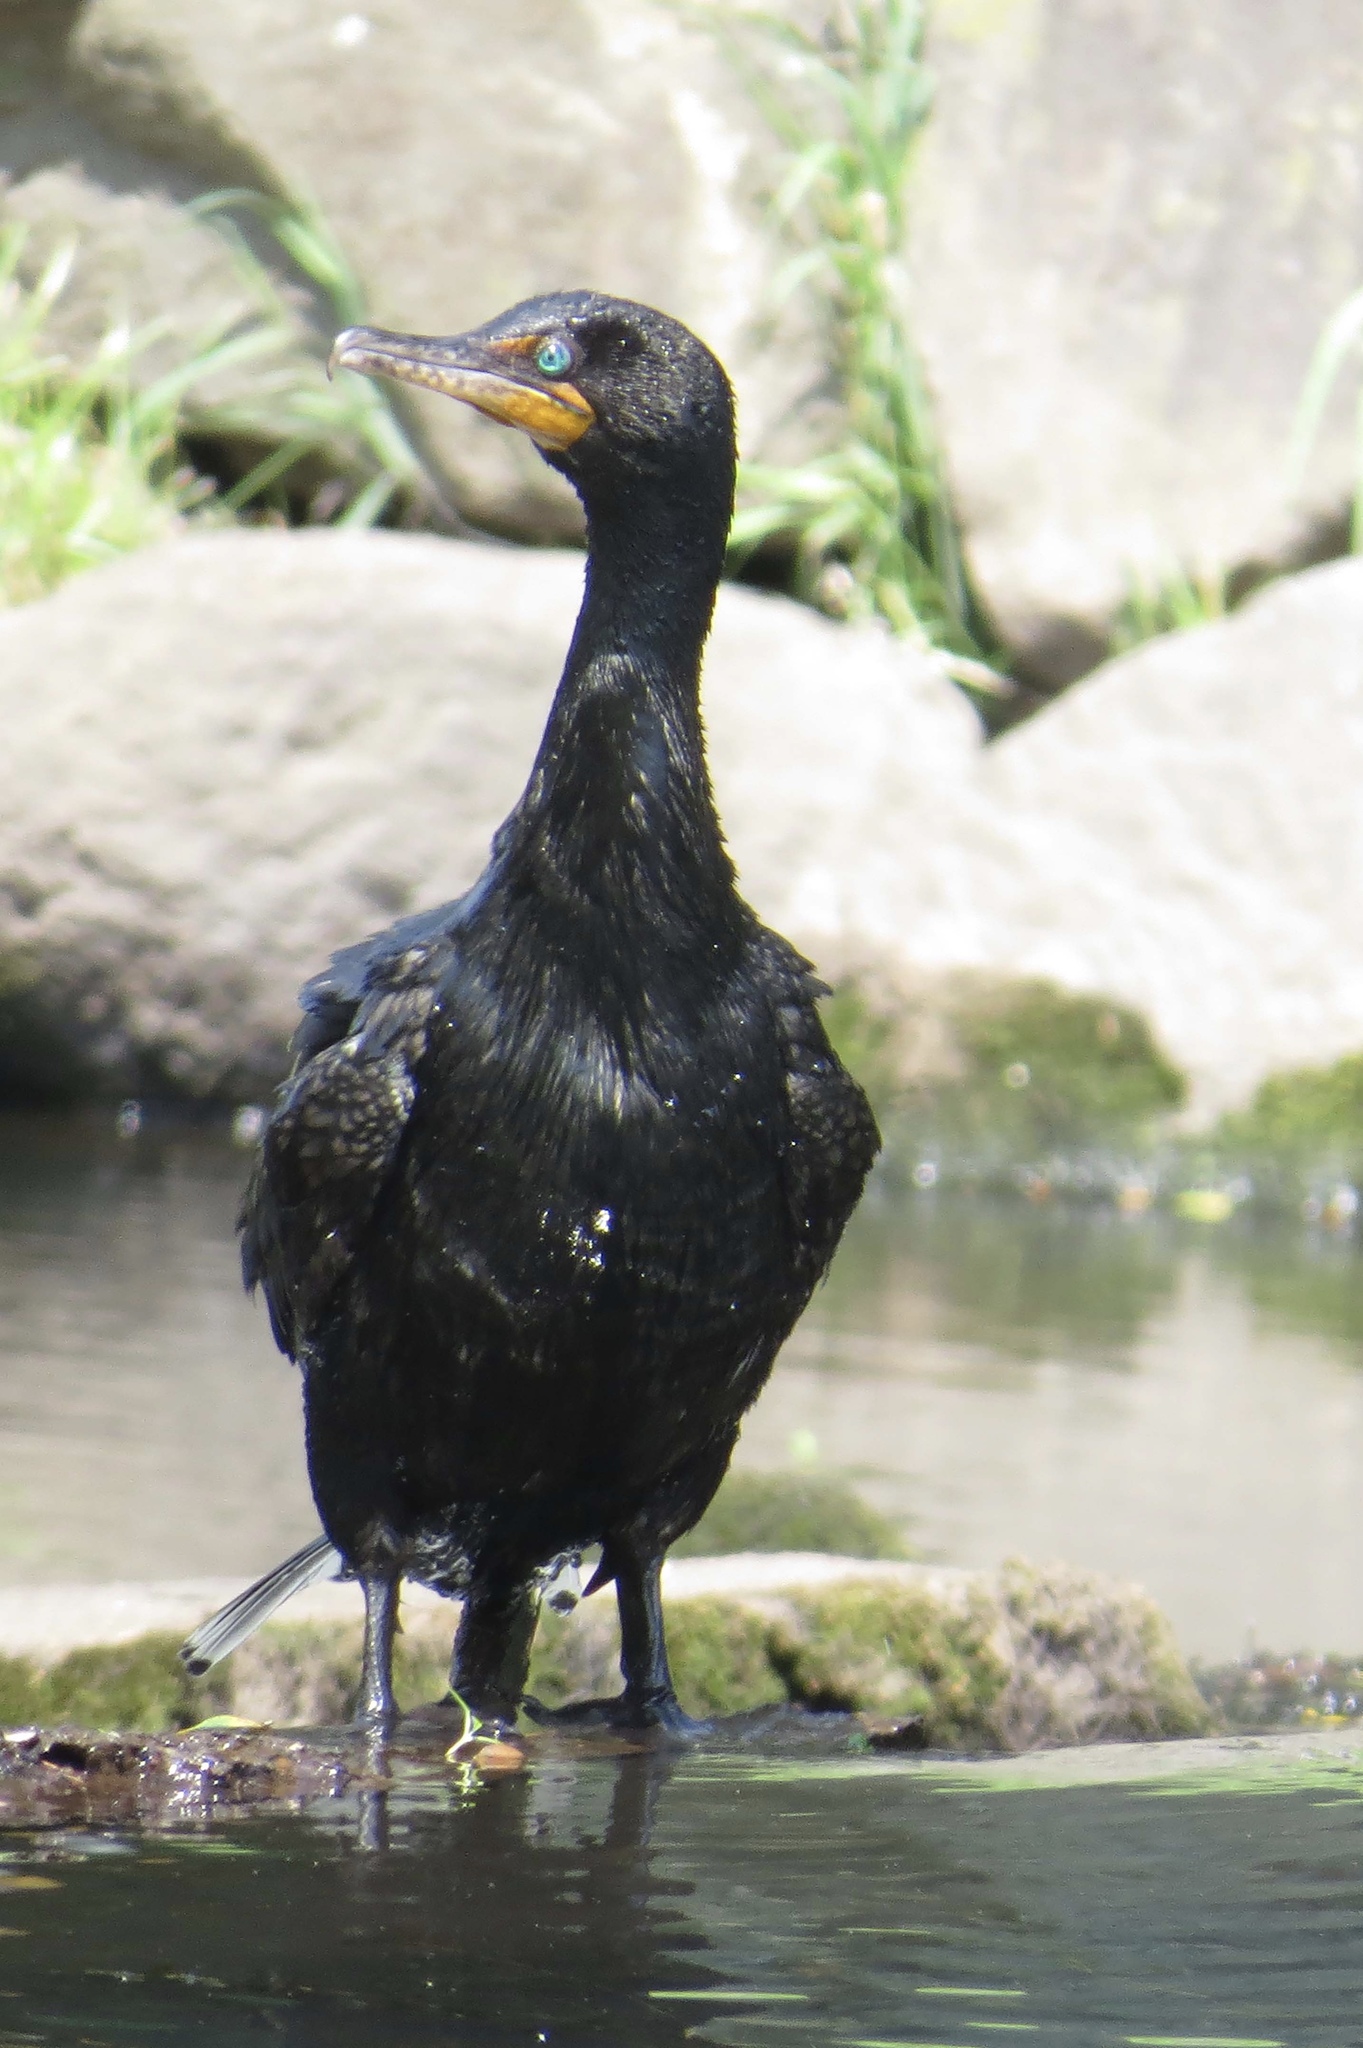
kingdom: Animalia
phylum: Chordata
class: Aves
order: Suliformes
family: Phalacrocoracidae
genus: Phalacrocorax
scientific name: Phalacrocorax auritus
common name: Double-crested cormorant
